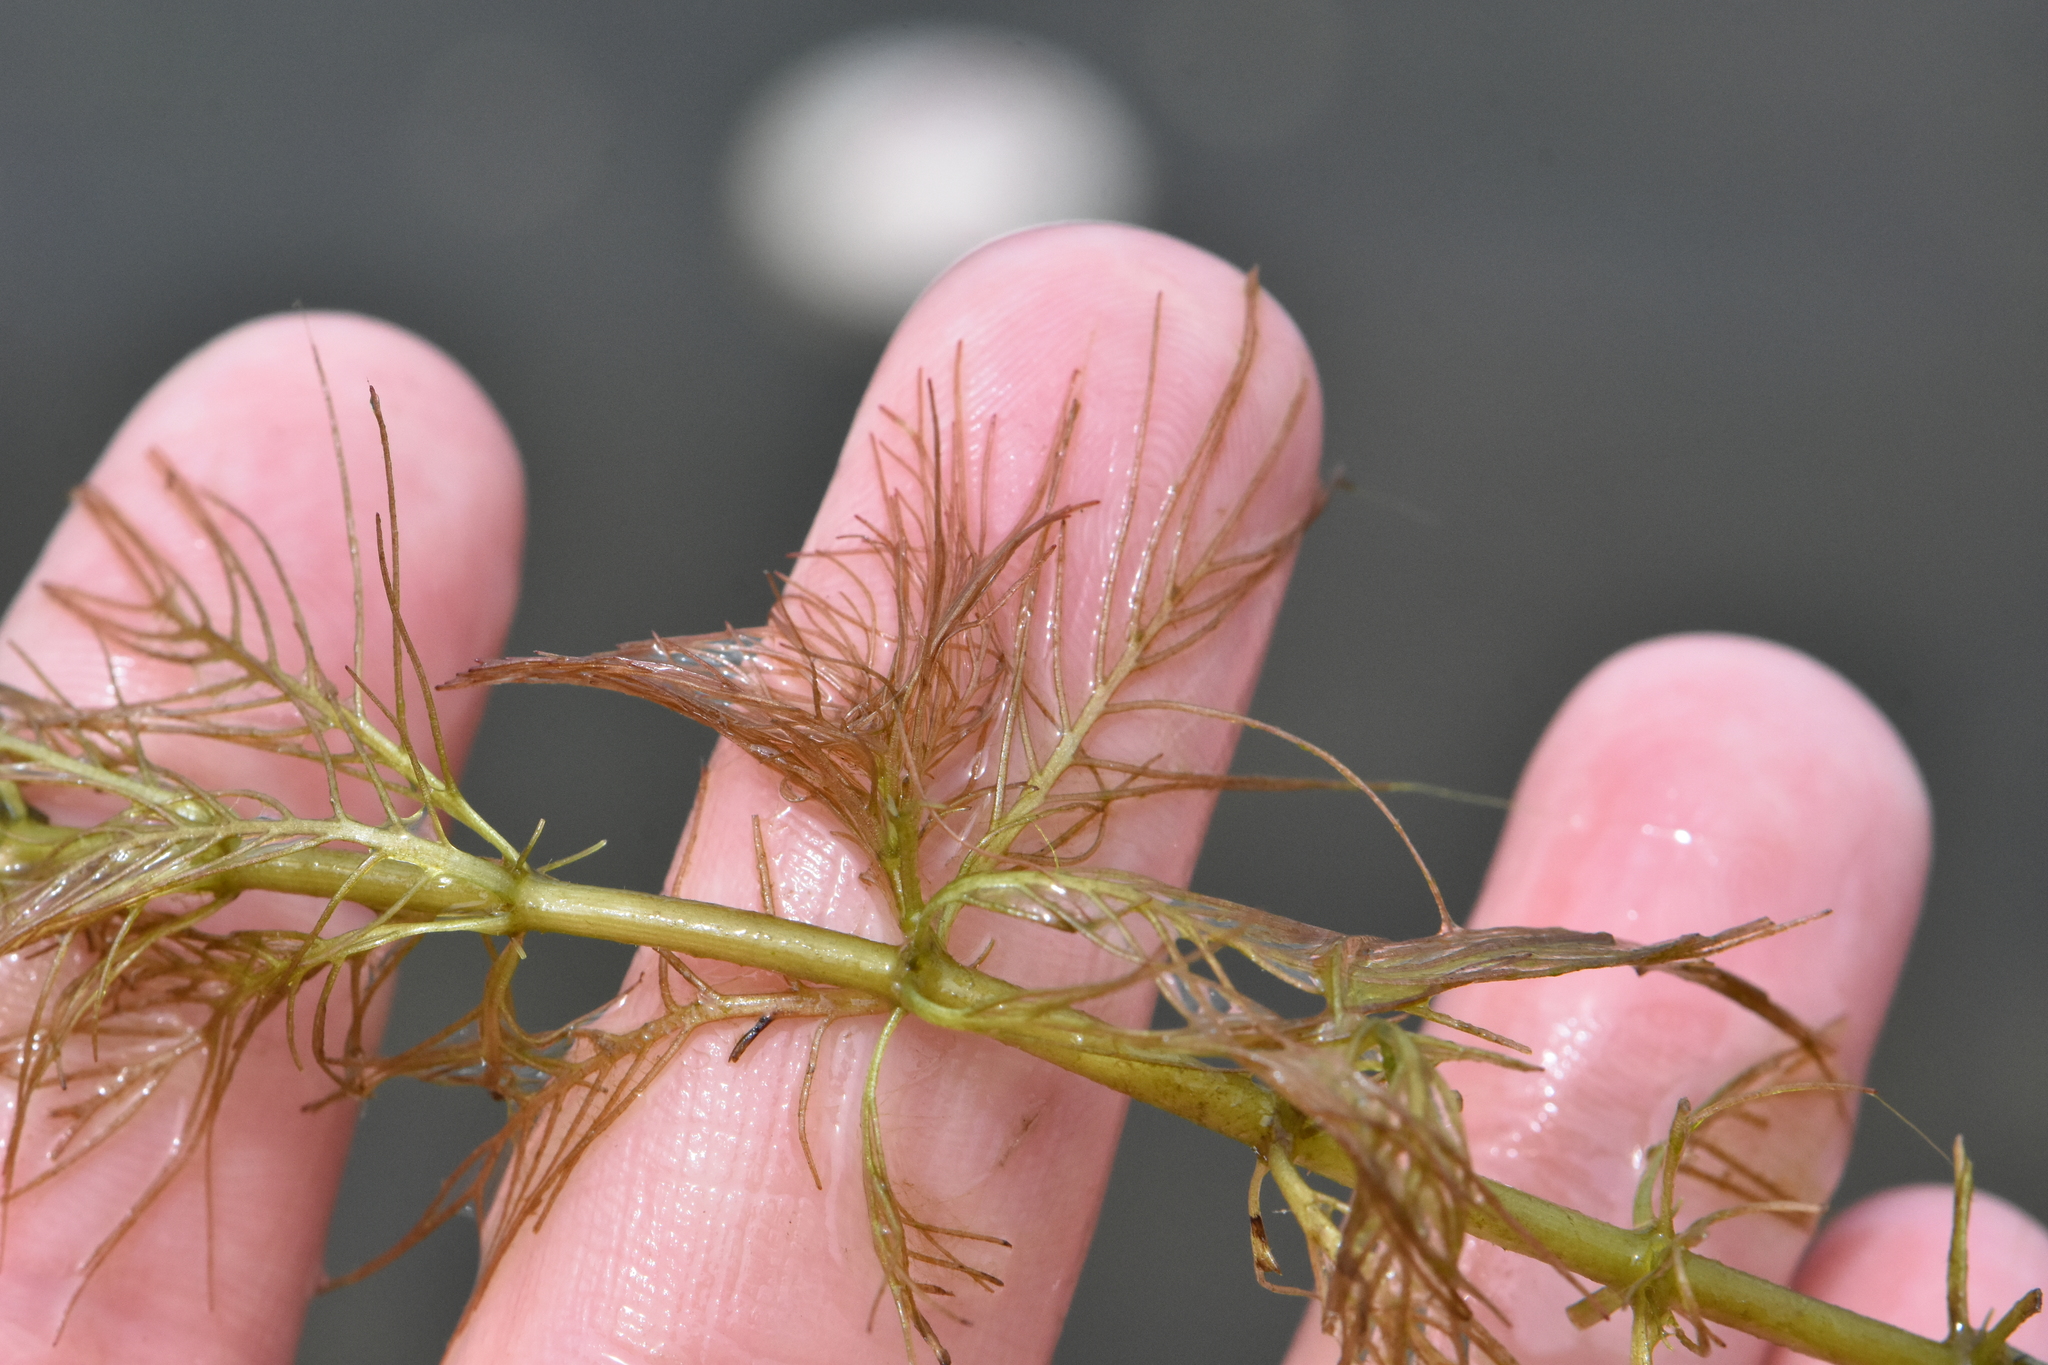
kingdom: Plantae
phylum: Tracheophyta
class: Magnoliopsida
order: Saxifragales
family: Haloragaceae
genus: Myriophyllum
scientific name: Myriophyllum aquaticum
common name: Parrot's feather
